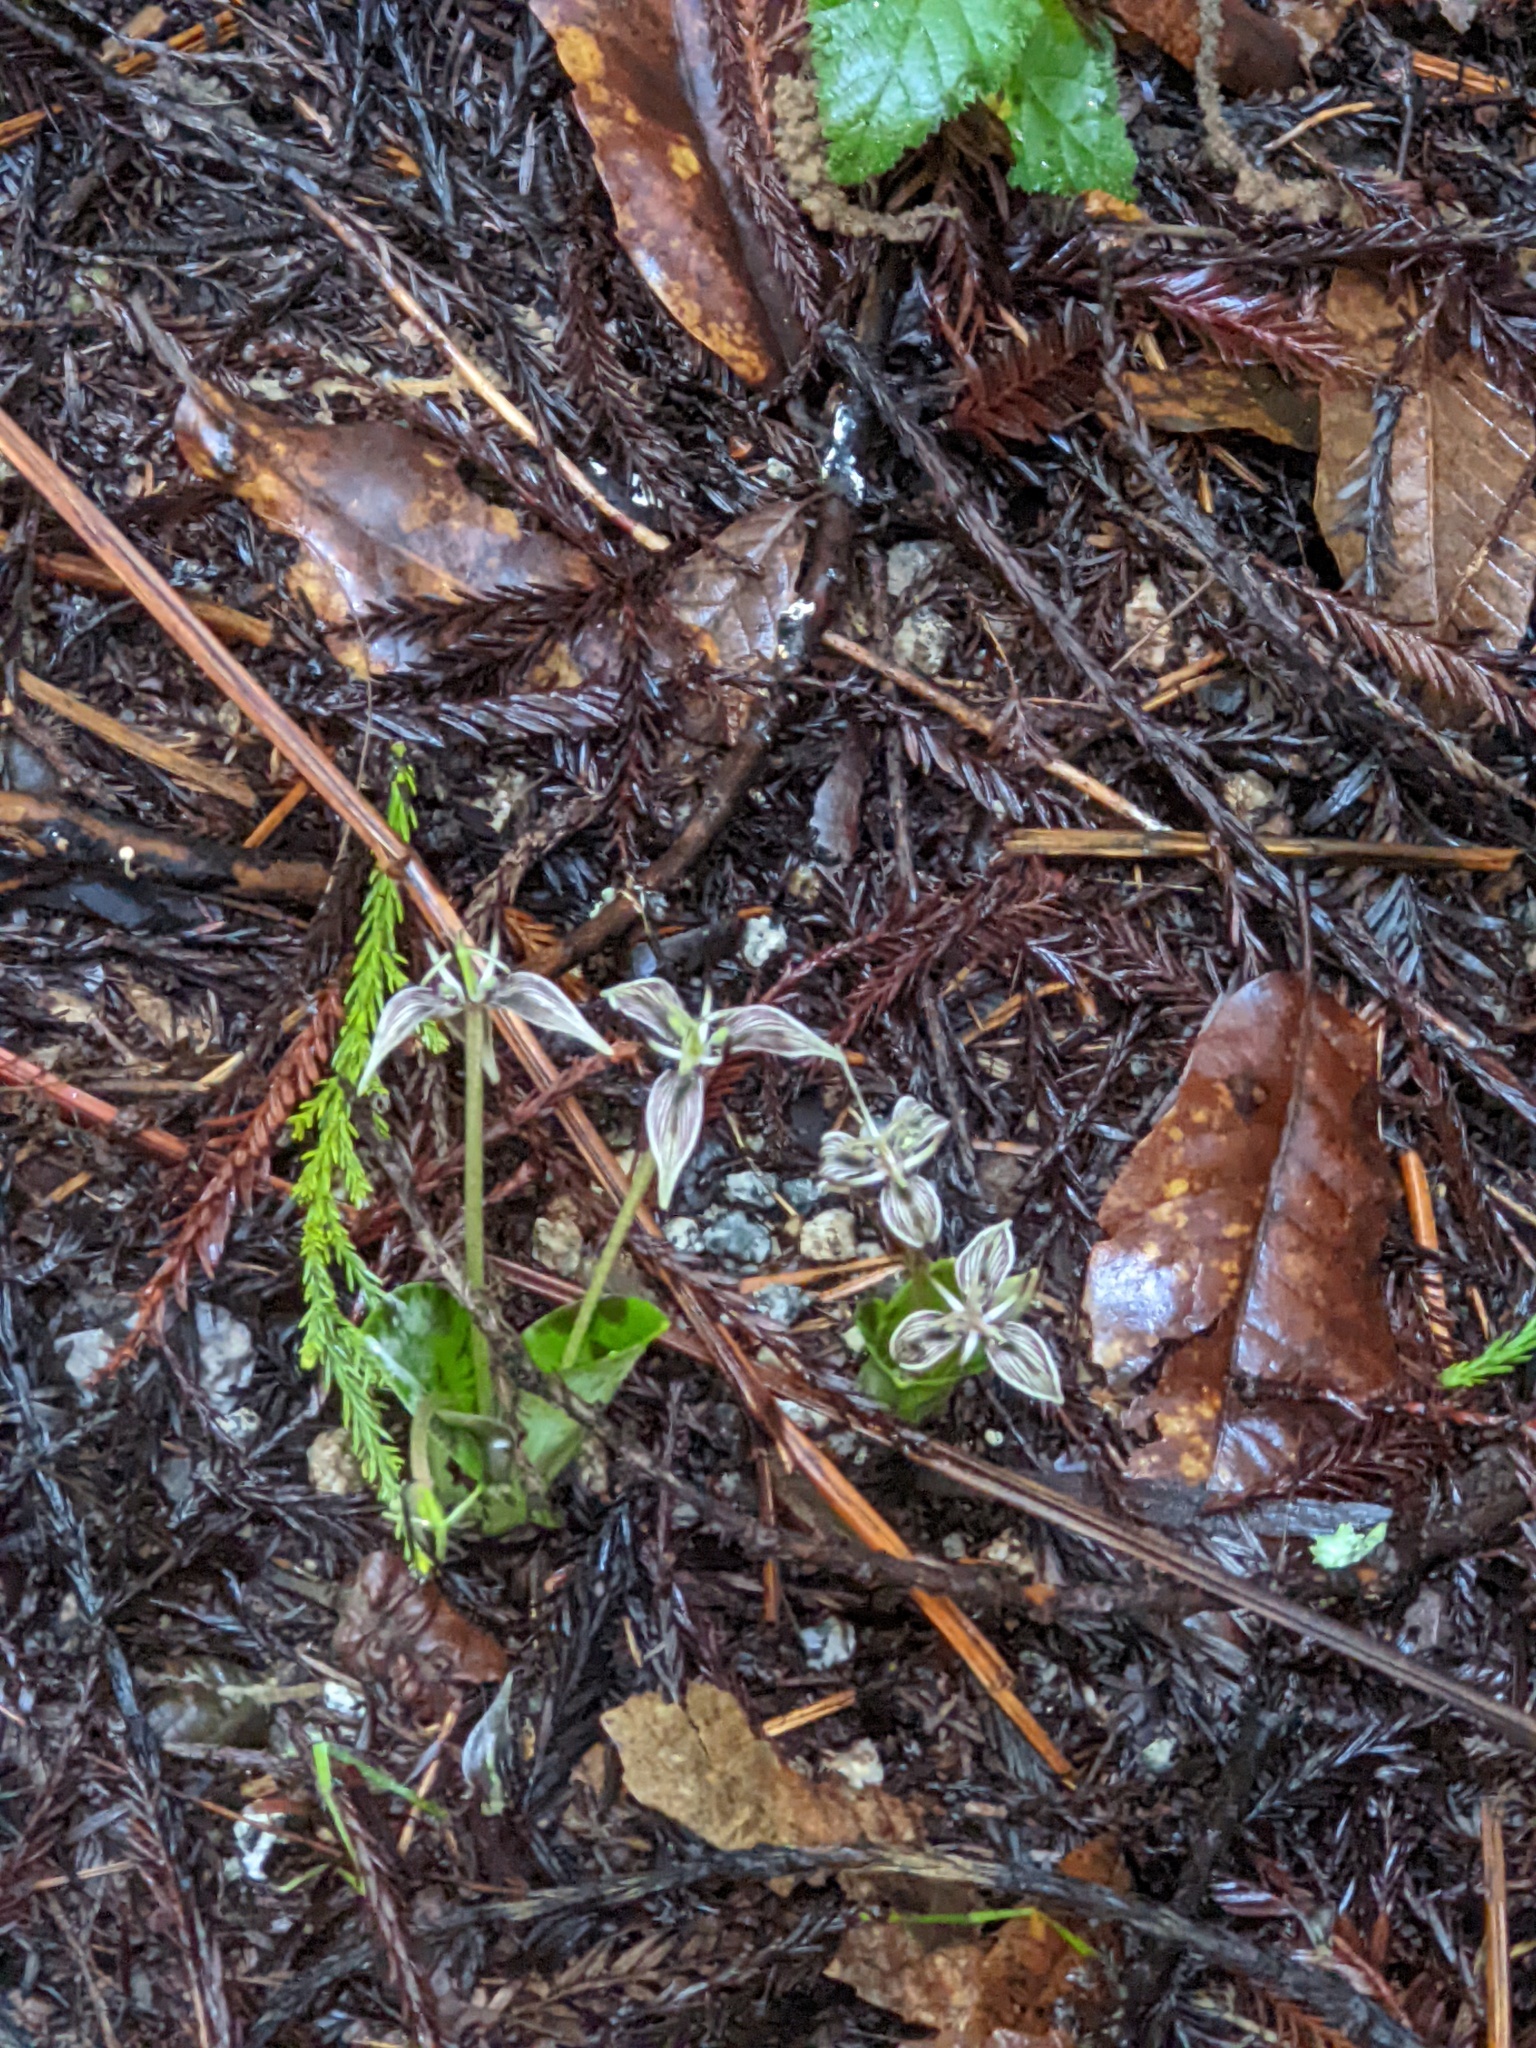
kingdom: Plantae
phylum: Tracheophyta
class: Liliopsida
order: Liliales
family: Liliaceae
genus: Scoliopus
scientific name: Scoliopus bigelovii
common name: Foetid adder's-tongue
